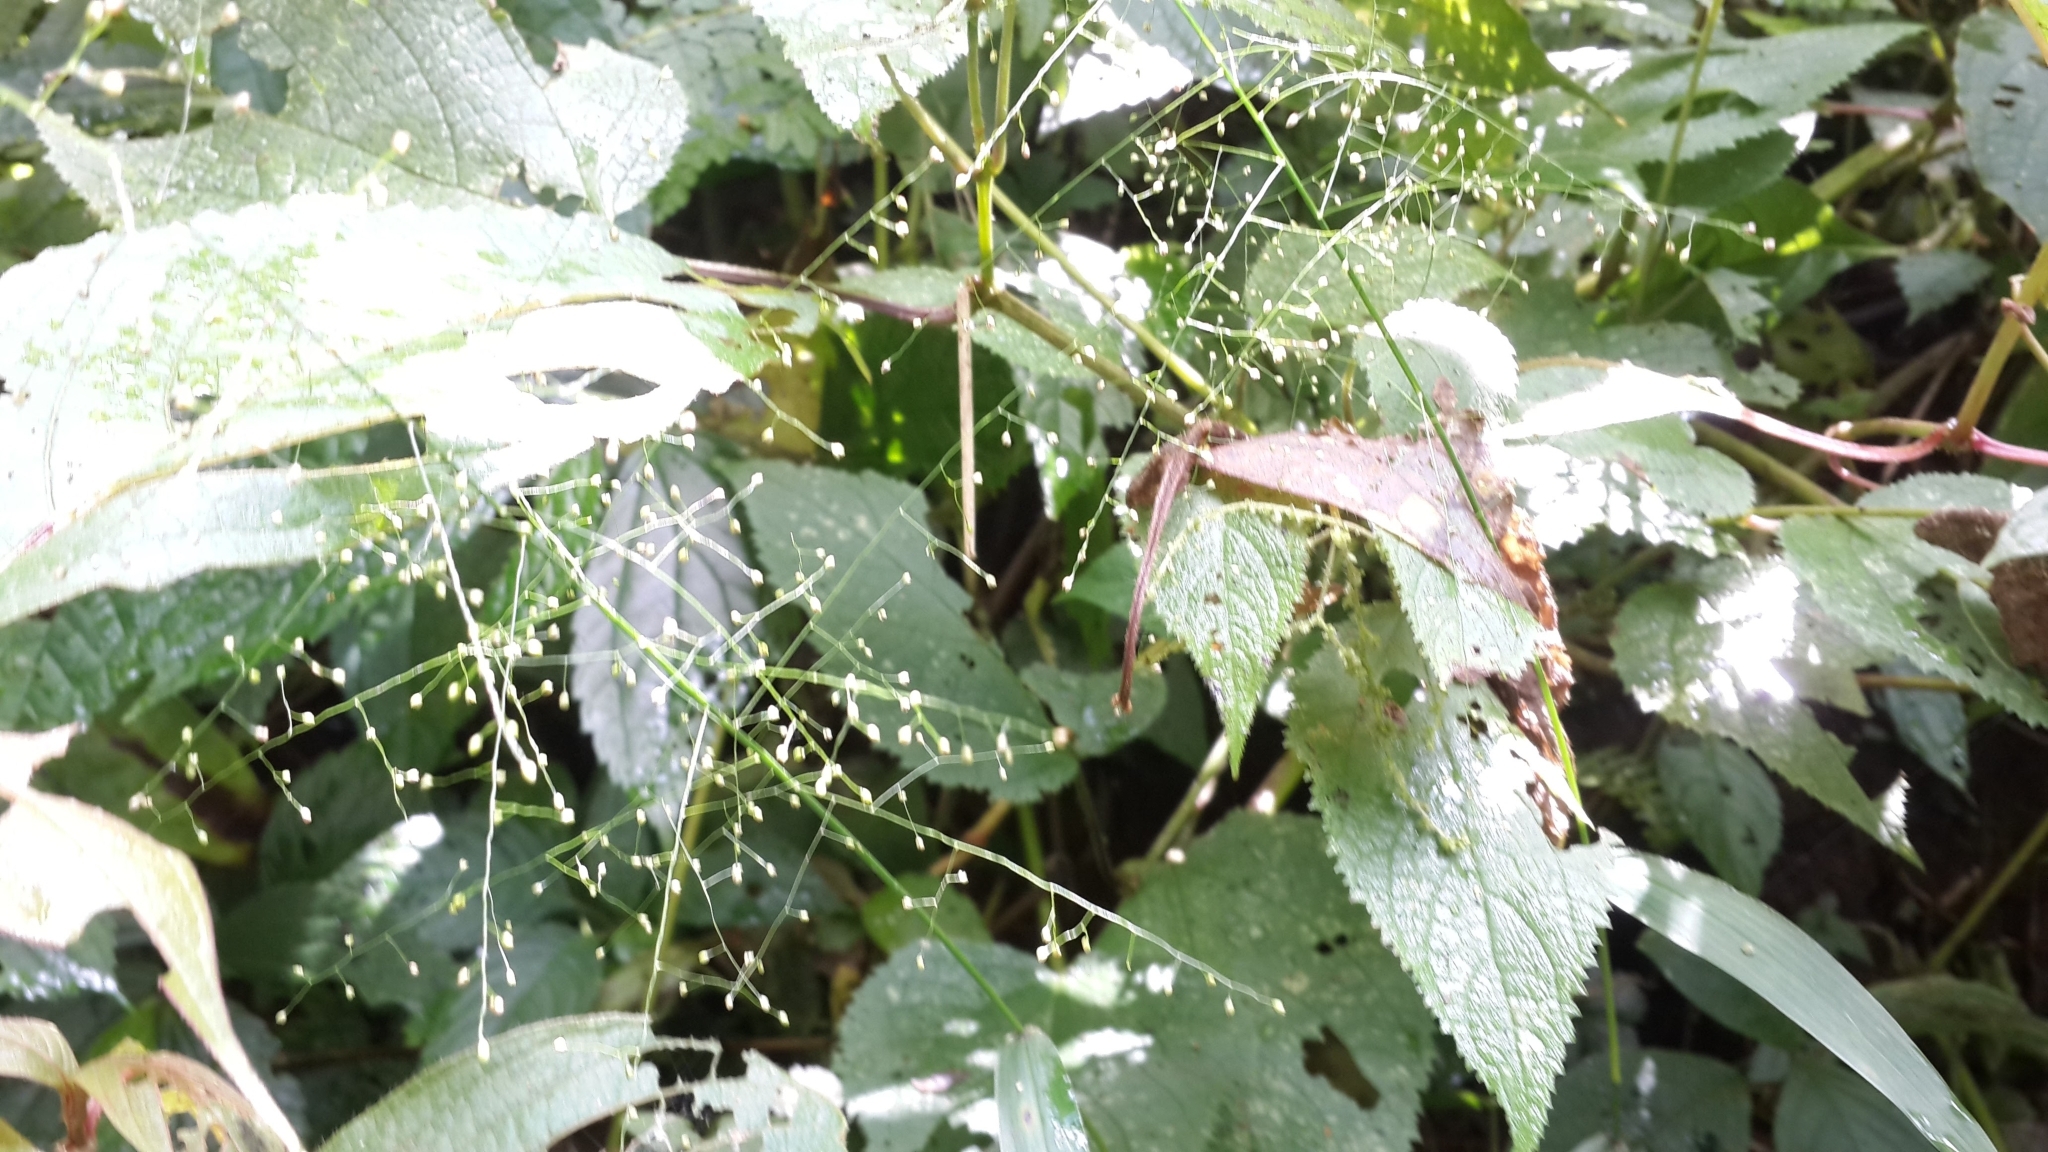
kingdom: Plantae
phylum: Tracheophyta
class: Magnoliopsida
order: Lamiales
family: Verbenaceae
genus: Verbena
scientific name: Verbena urticifolia
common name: Nettle-leaved vervain
